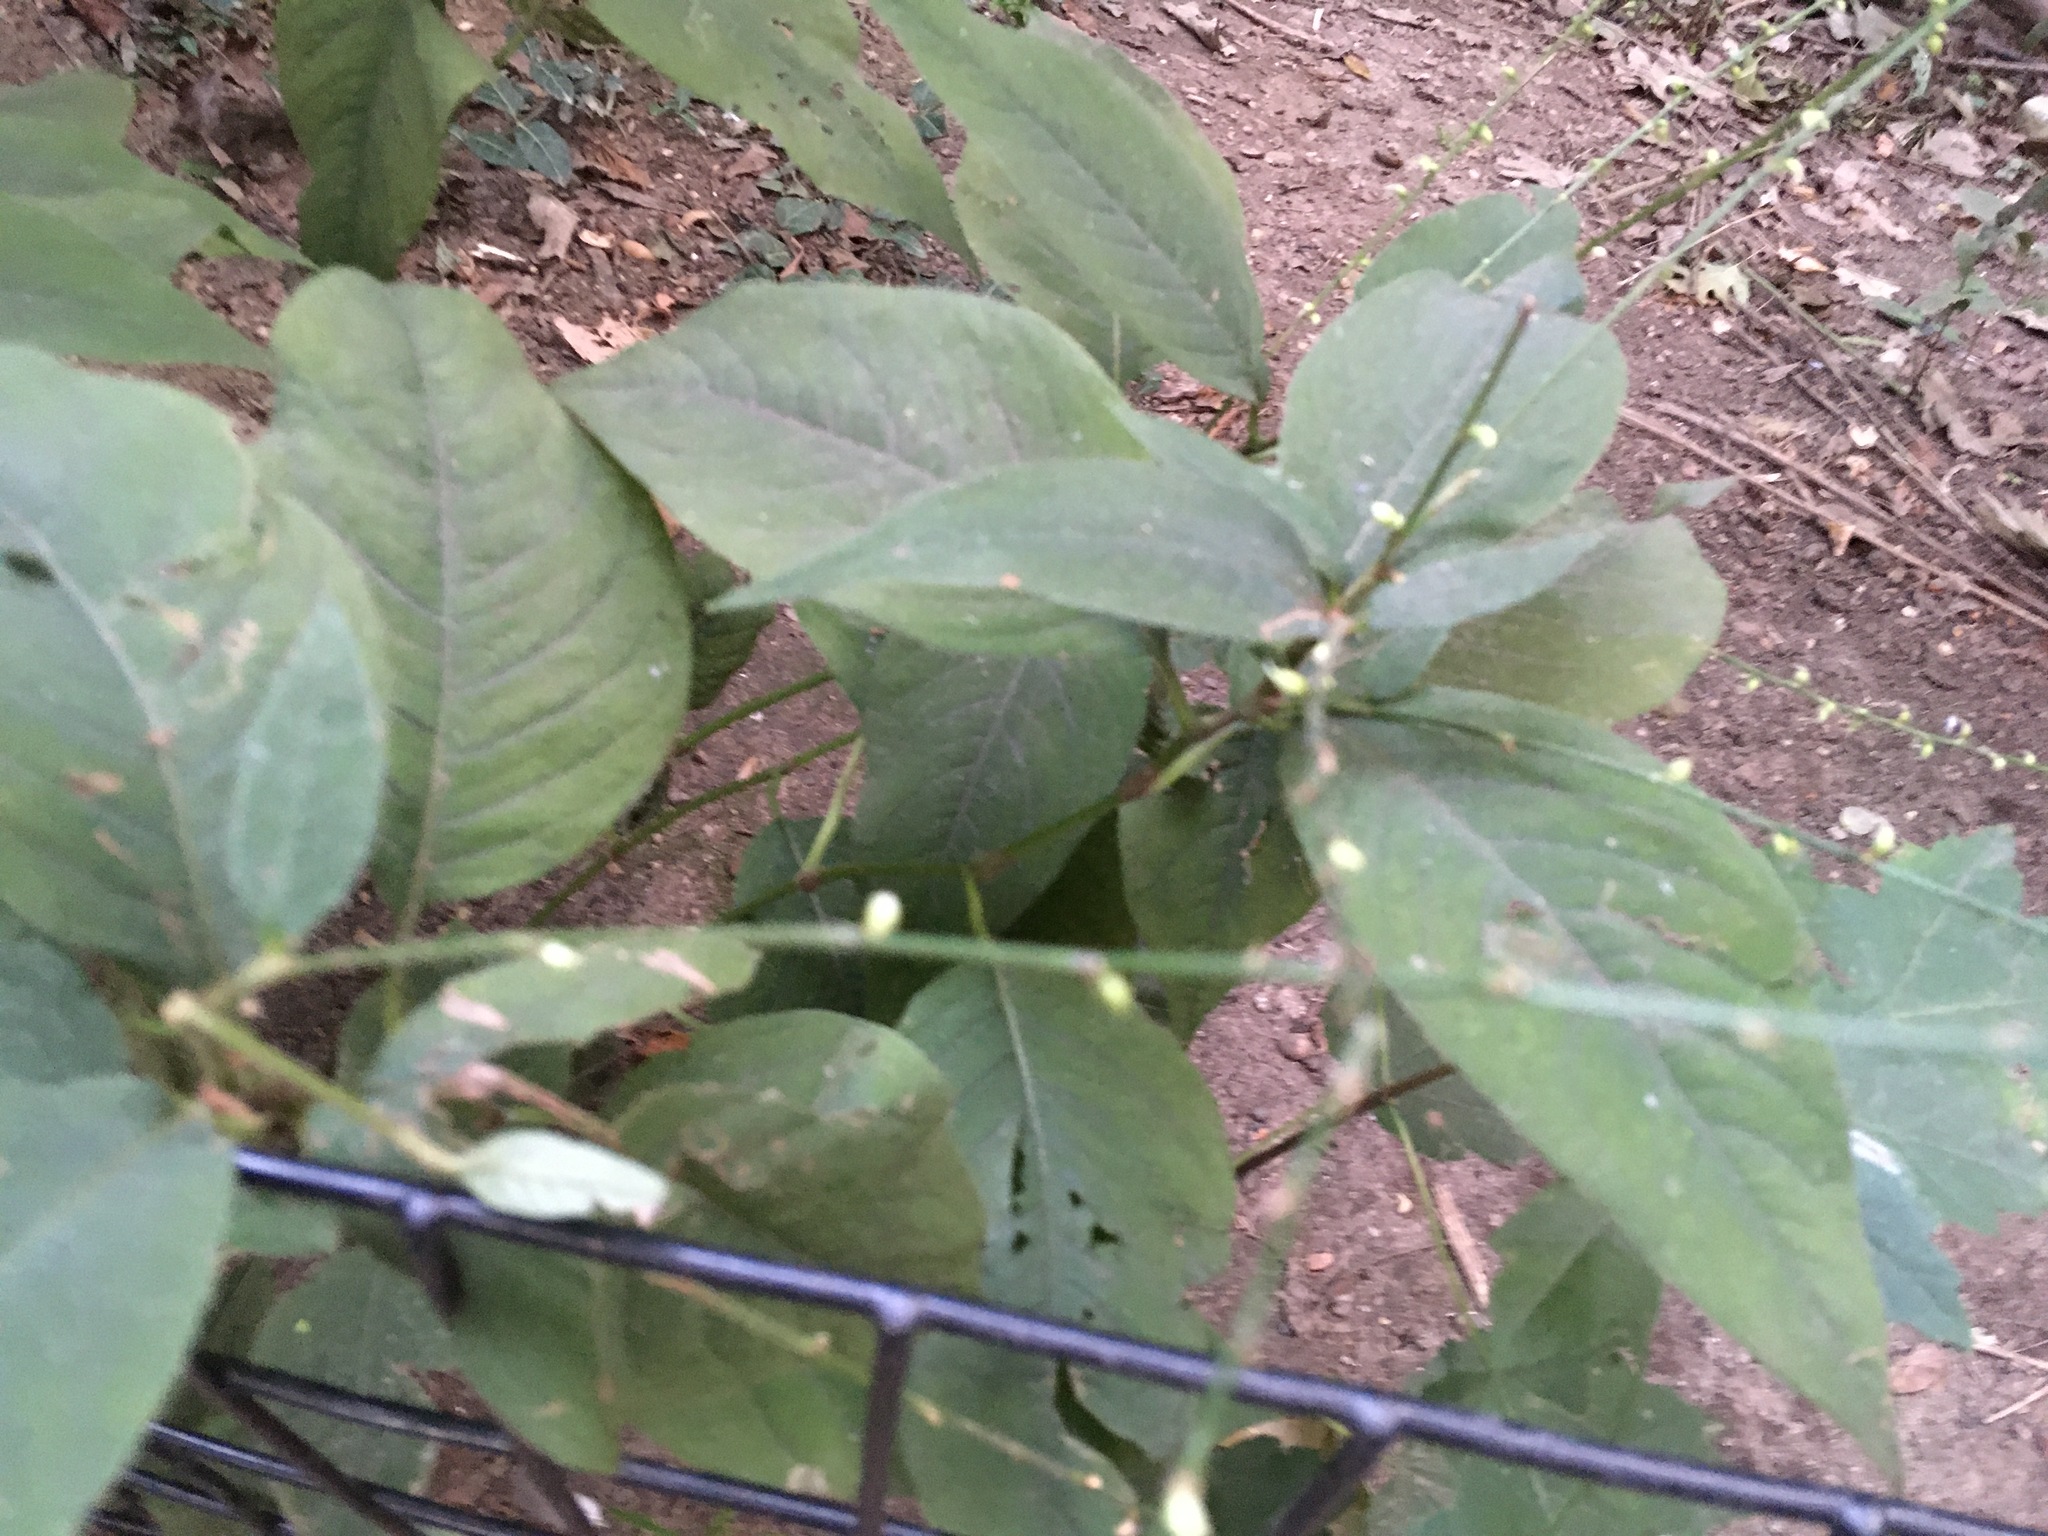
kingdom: Plantae
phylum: Tracheophyta
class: Magnoliopsida
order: Caryophyllales
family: Polygonaceae
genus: Persicaria
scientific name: Persicaria virginiana
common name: Jumpseed
